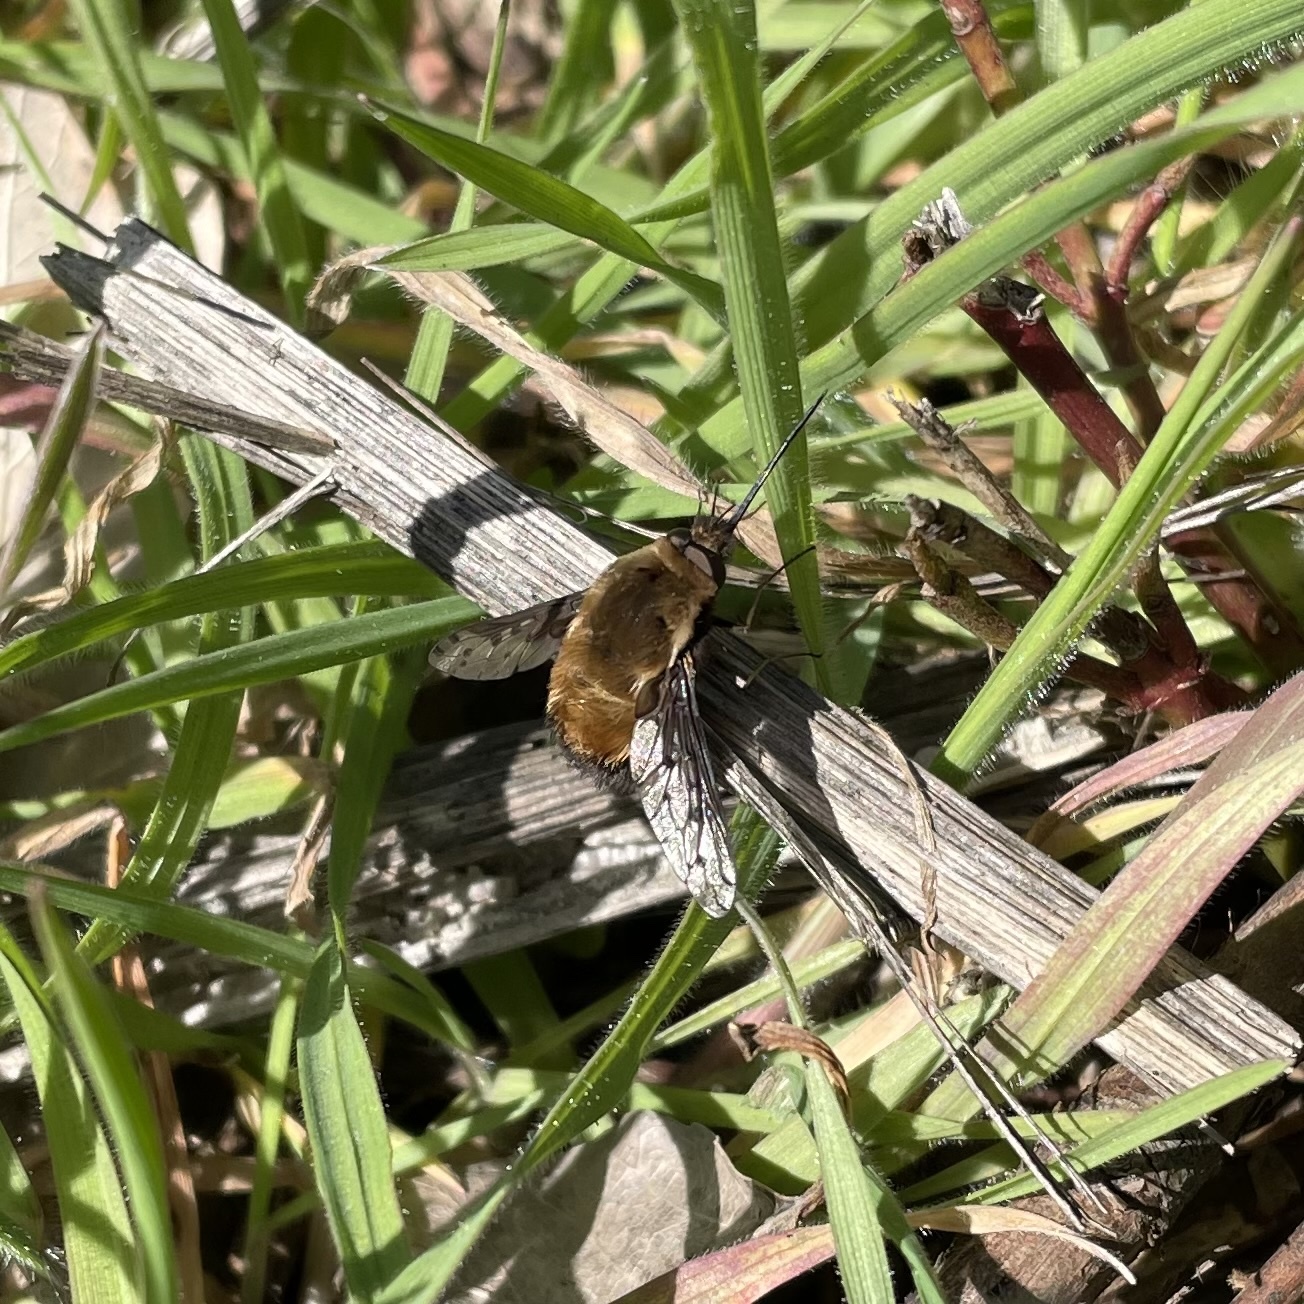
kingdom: Animalia
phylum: Arthropoda
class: Insecta
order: Diptera
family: Bombyliidae
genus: Bombylius
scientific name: Bombylius discolor
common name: Dotted bee-fly
